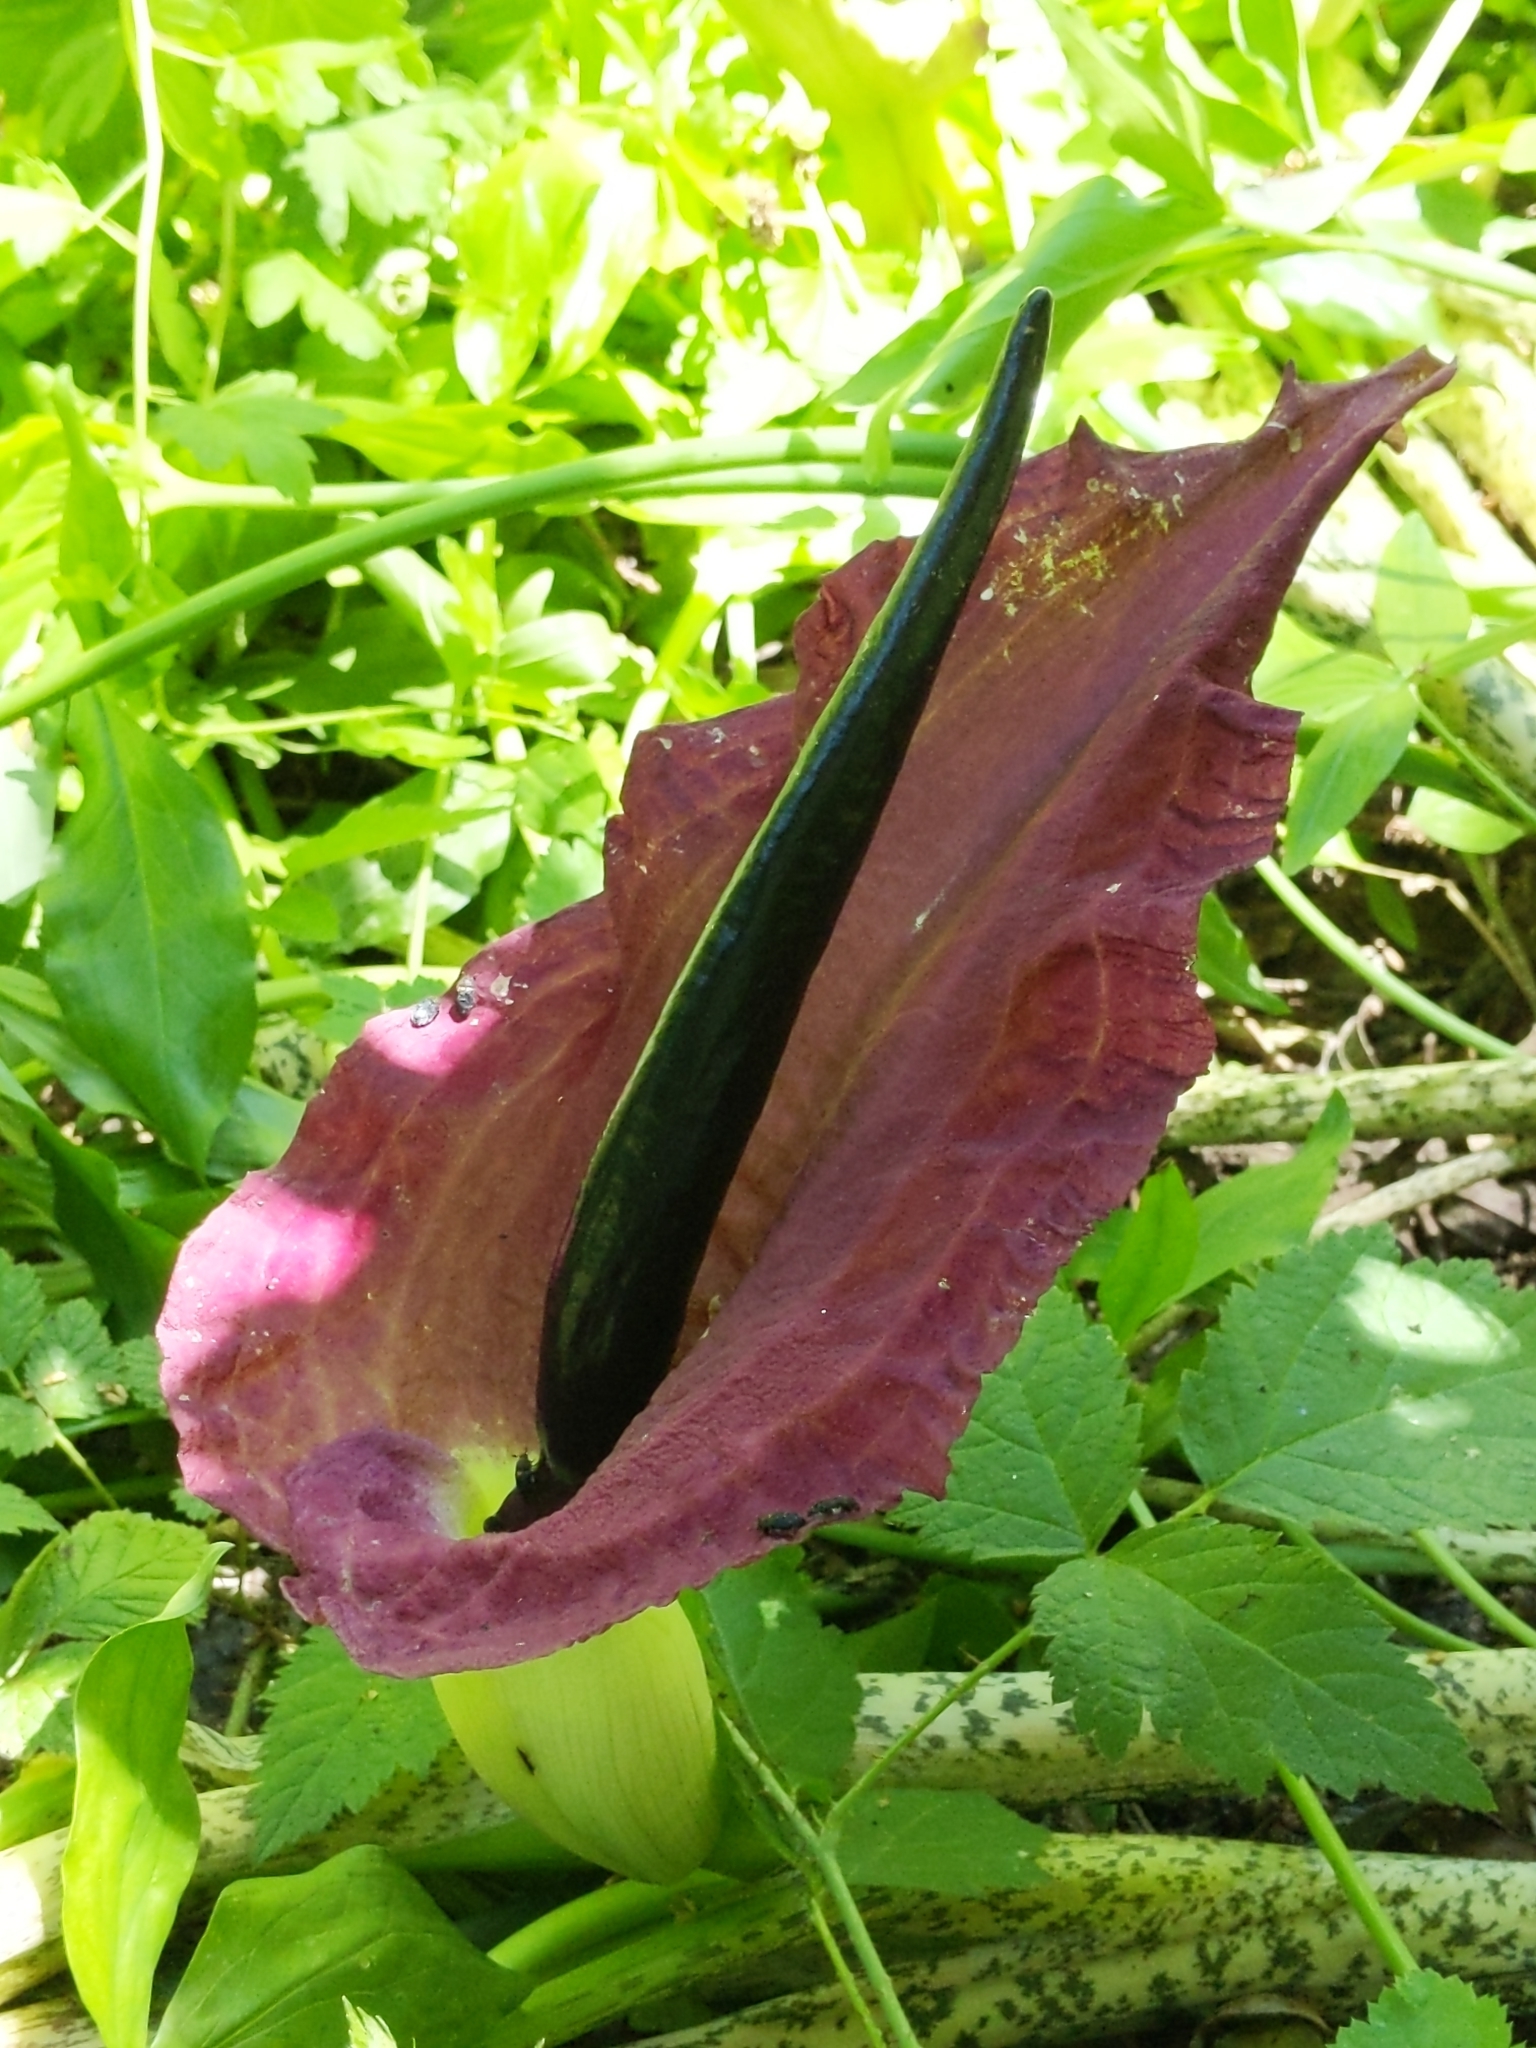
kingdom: Plantae
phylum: Tracheophyta
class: Liliopsida
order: Alismatales
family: Araceae
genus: Dracunculus
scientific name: Dracunculus vulgaris
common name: Dragon arum
